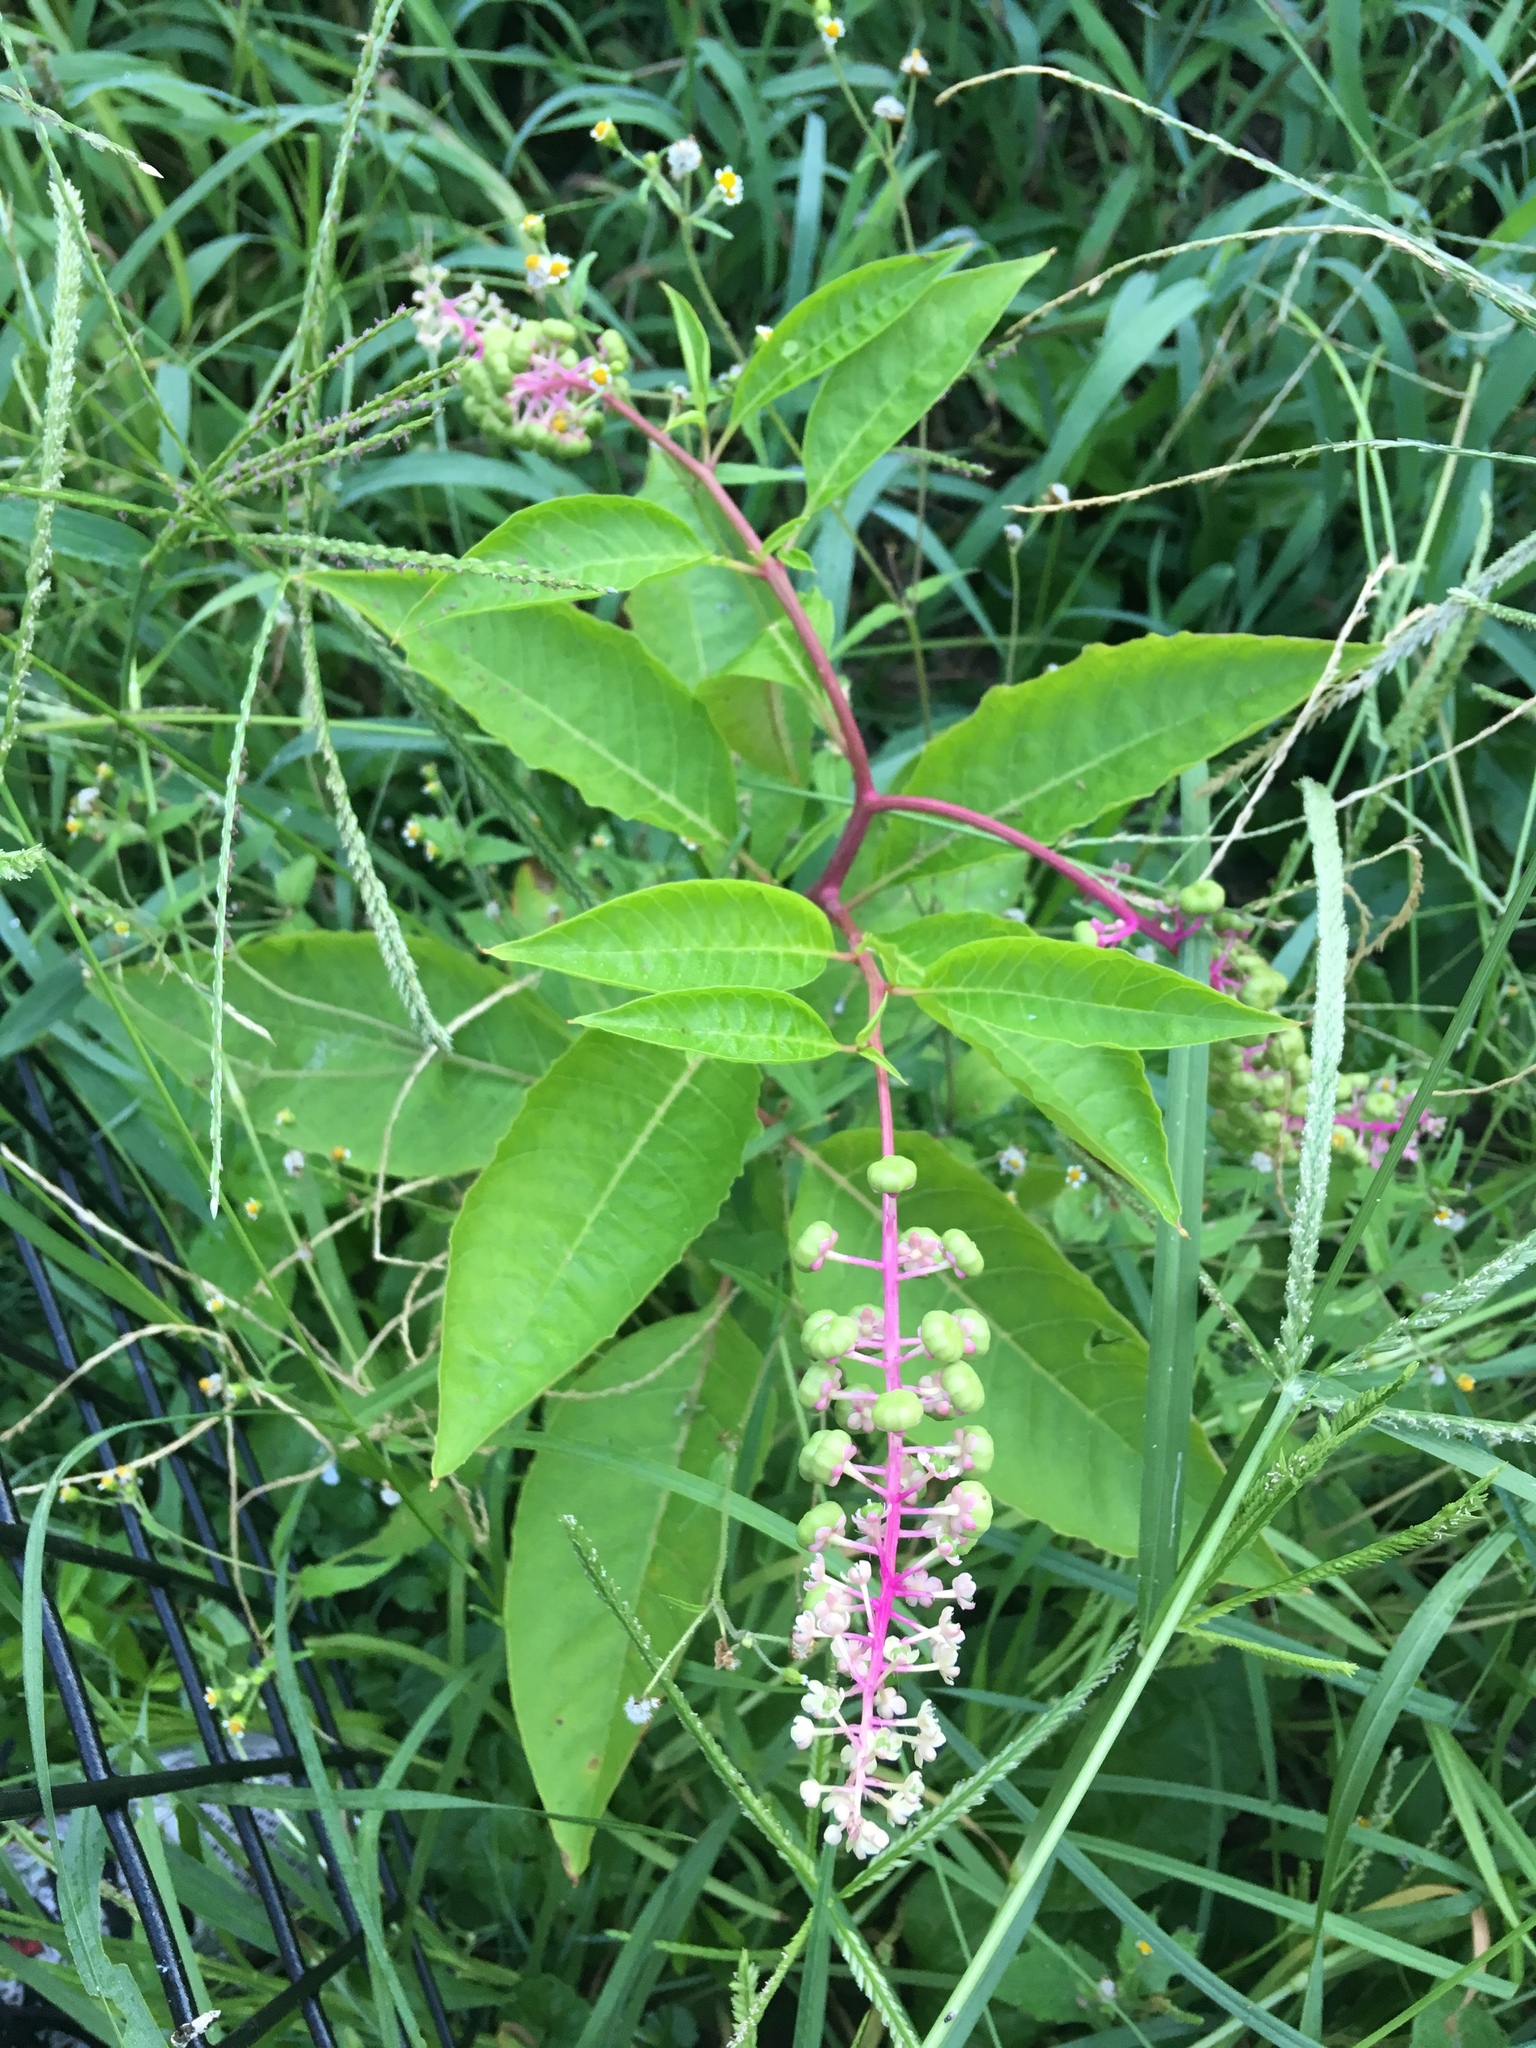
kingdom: Plantae
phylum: Tracheophyta
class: Magnoliopsida
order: Caryophyllales
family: Phytolaccaceae
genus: Phytolacca
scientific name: Phytolacca americana
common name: American pokeweed
